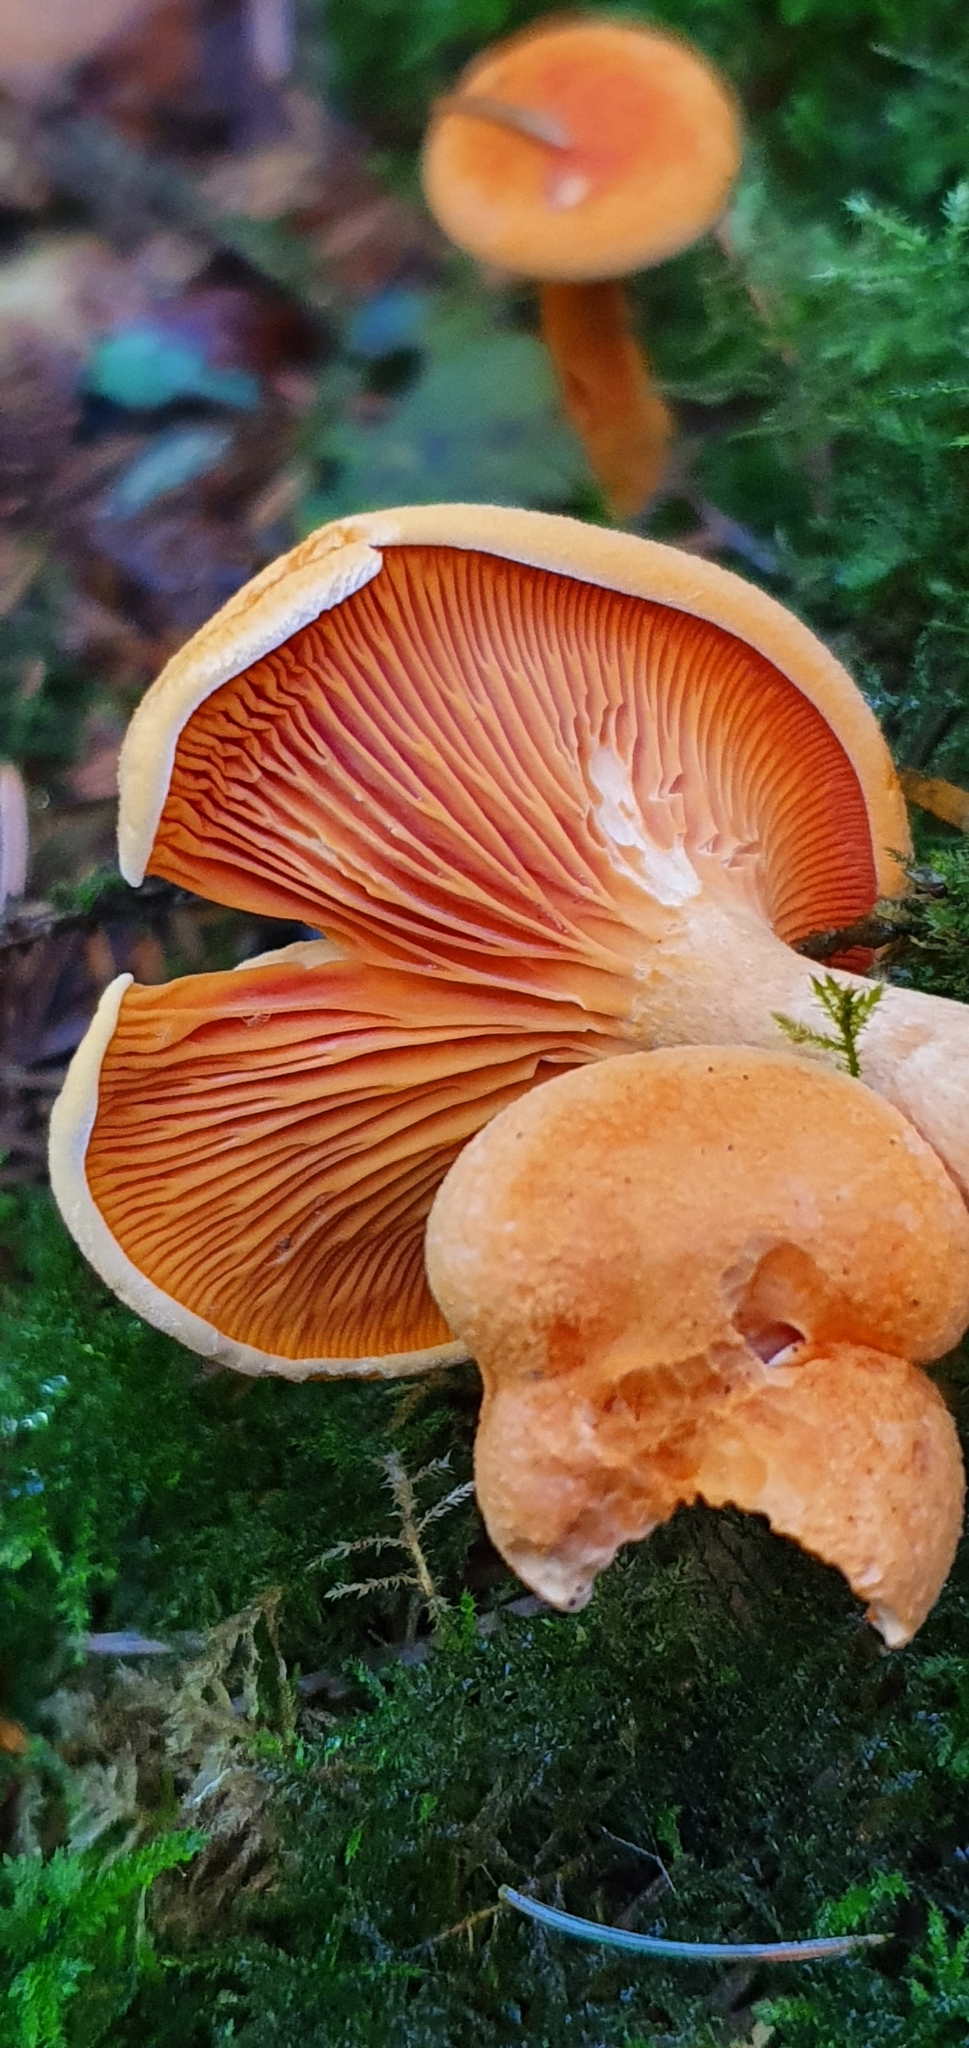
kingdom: Fungi
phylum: Basidiomycota
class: Agaricomycetes
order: Boletales
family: Hygrophoropsidaceae
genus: Hygrophoropsis
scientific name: Hygrophoropsis aurantiaca
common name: False chanterelle
